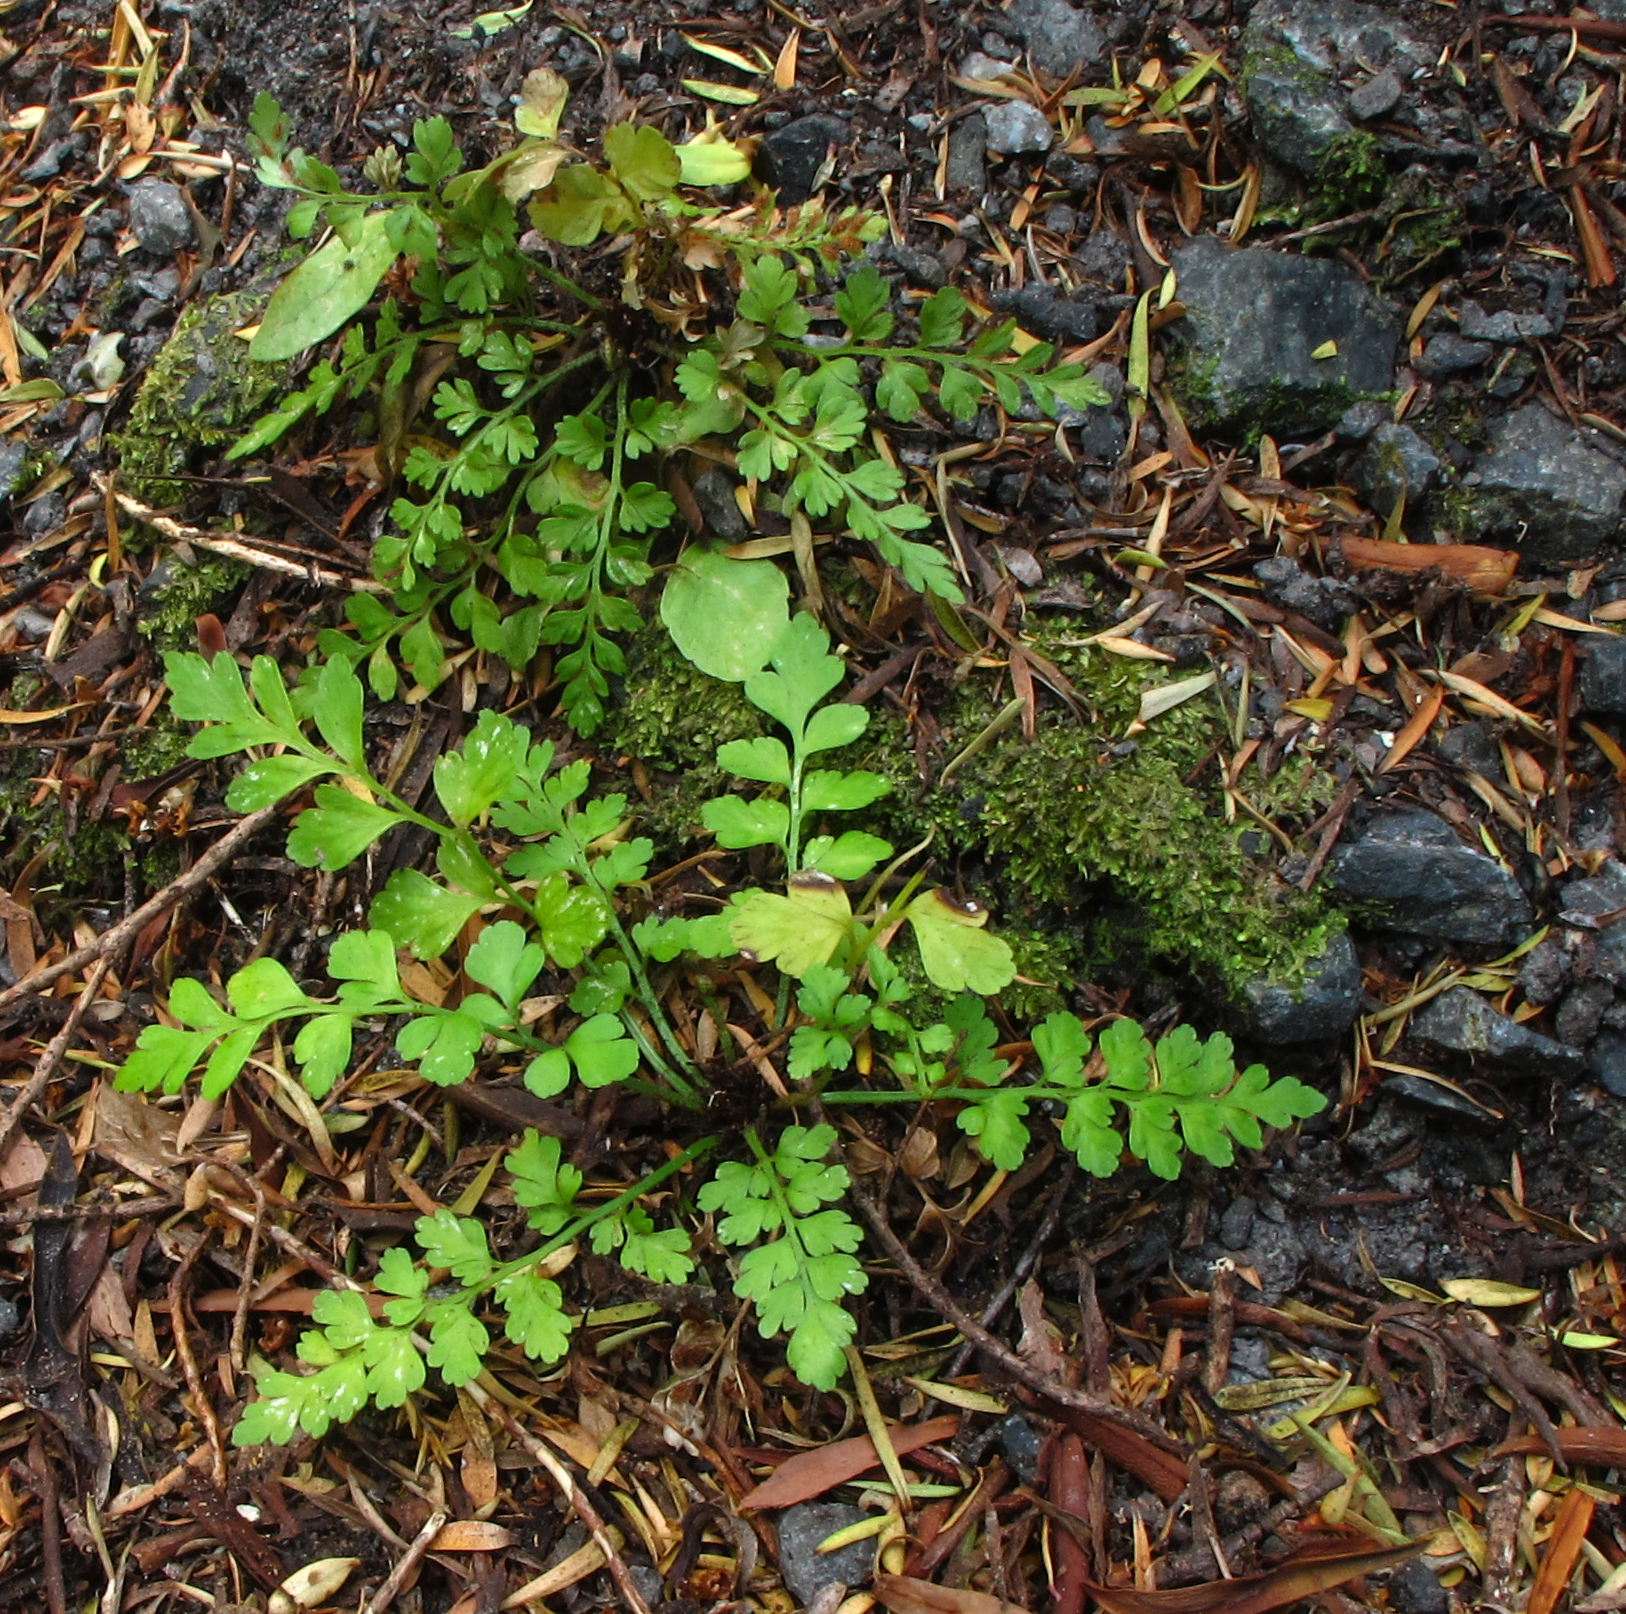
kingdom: Plantae
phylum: Tracheophyta
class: Polypodiopsida
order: Polypodiales
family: Aspleniaceae
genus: Asplenium
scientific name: Asplenium hookerianum
